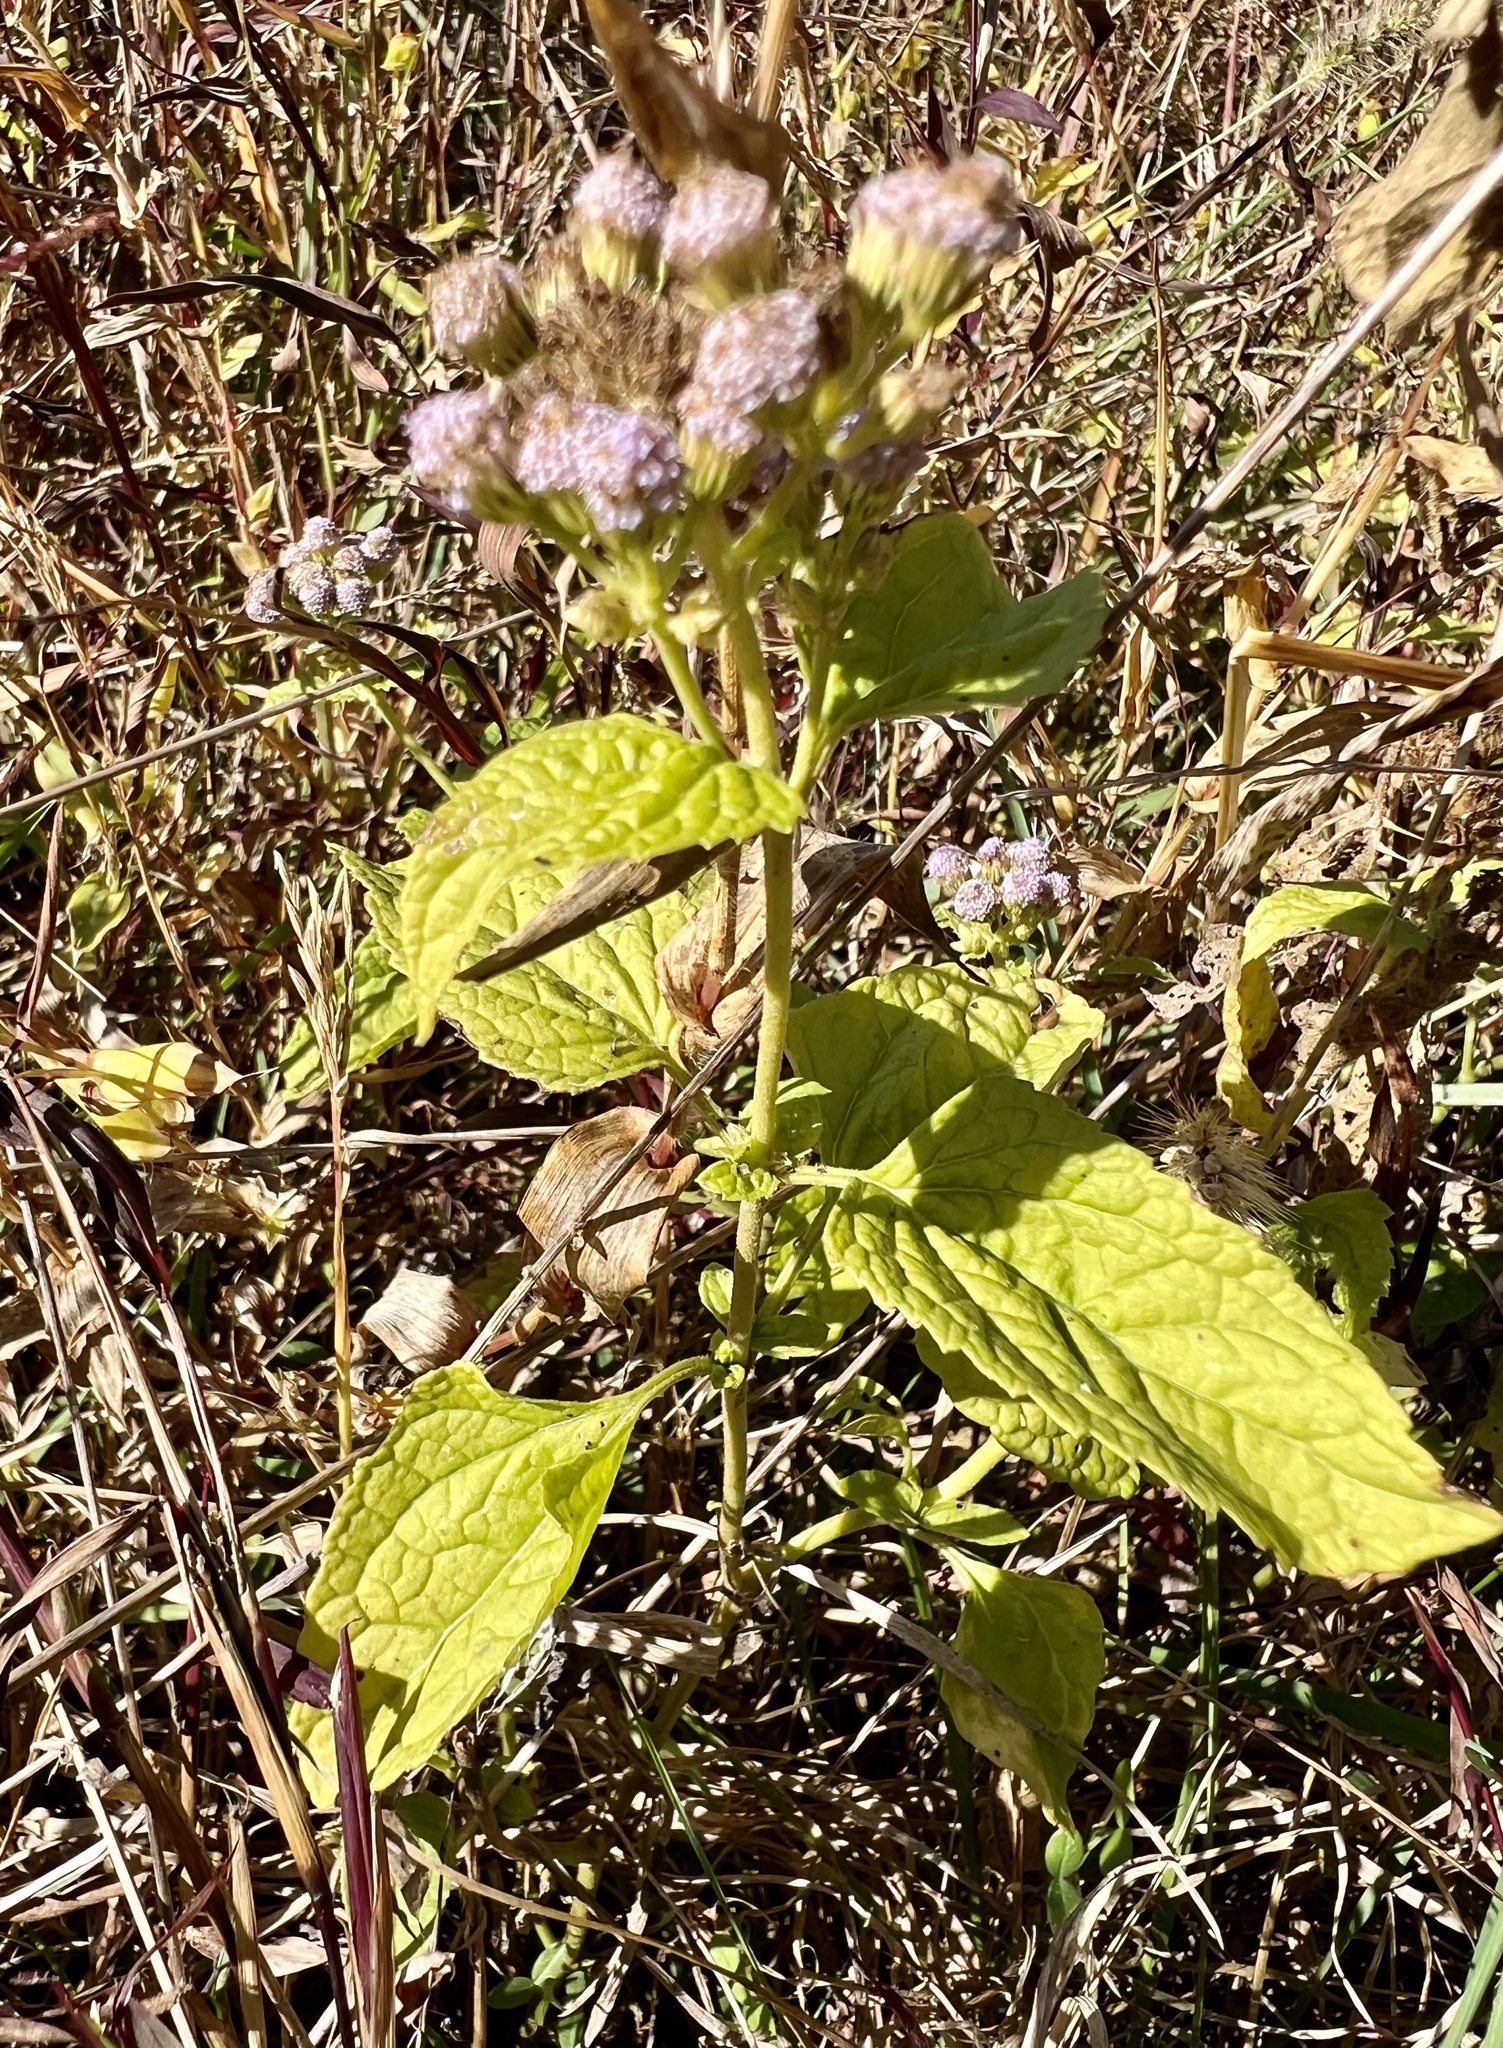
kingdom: Plantae
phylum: Tracheophyta
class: Magnoliopsida
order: Asterales
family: Asteraceae
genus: Conoclinium
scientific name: Conoclinium coelestinum
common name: Blue mistflower
